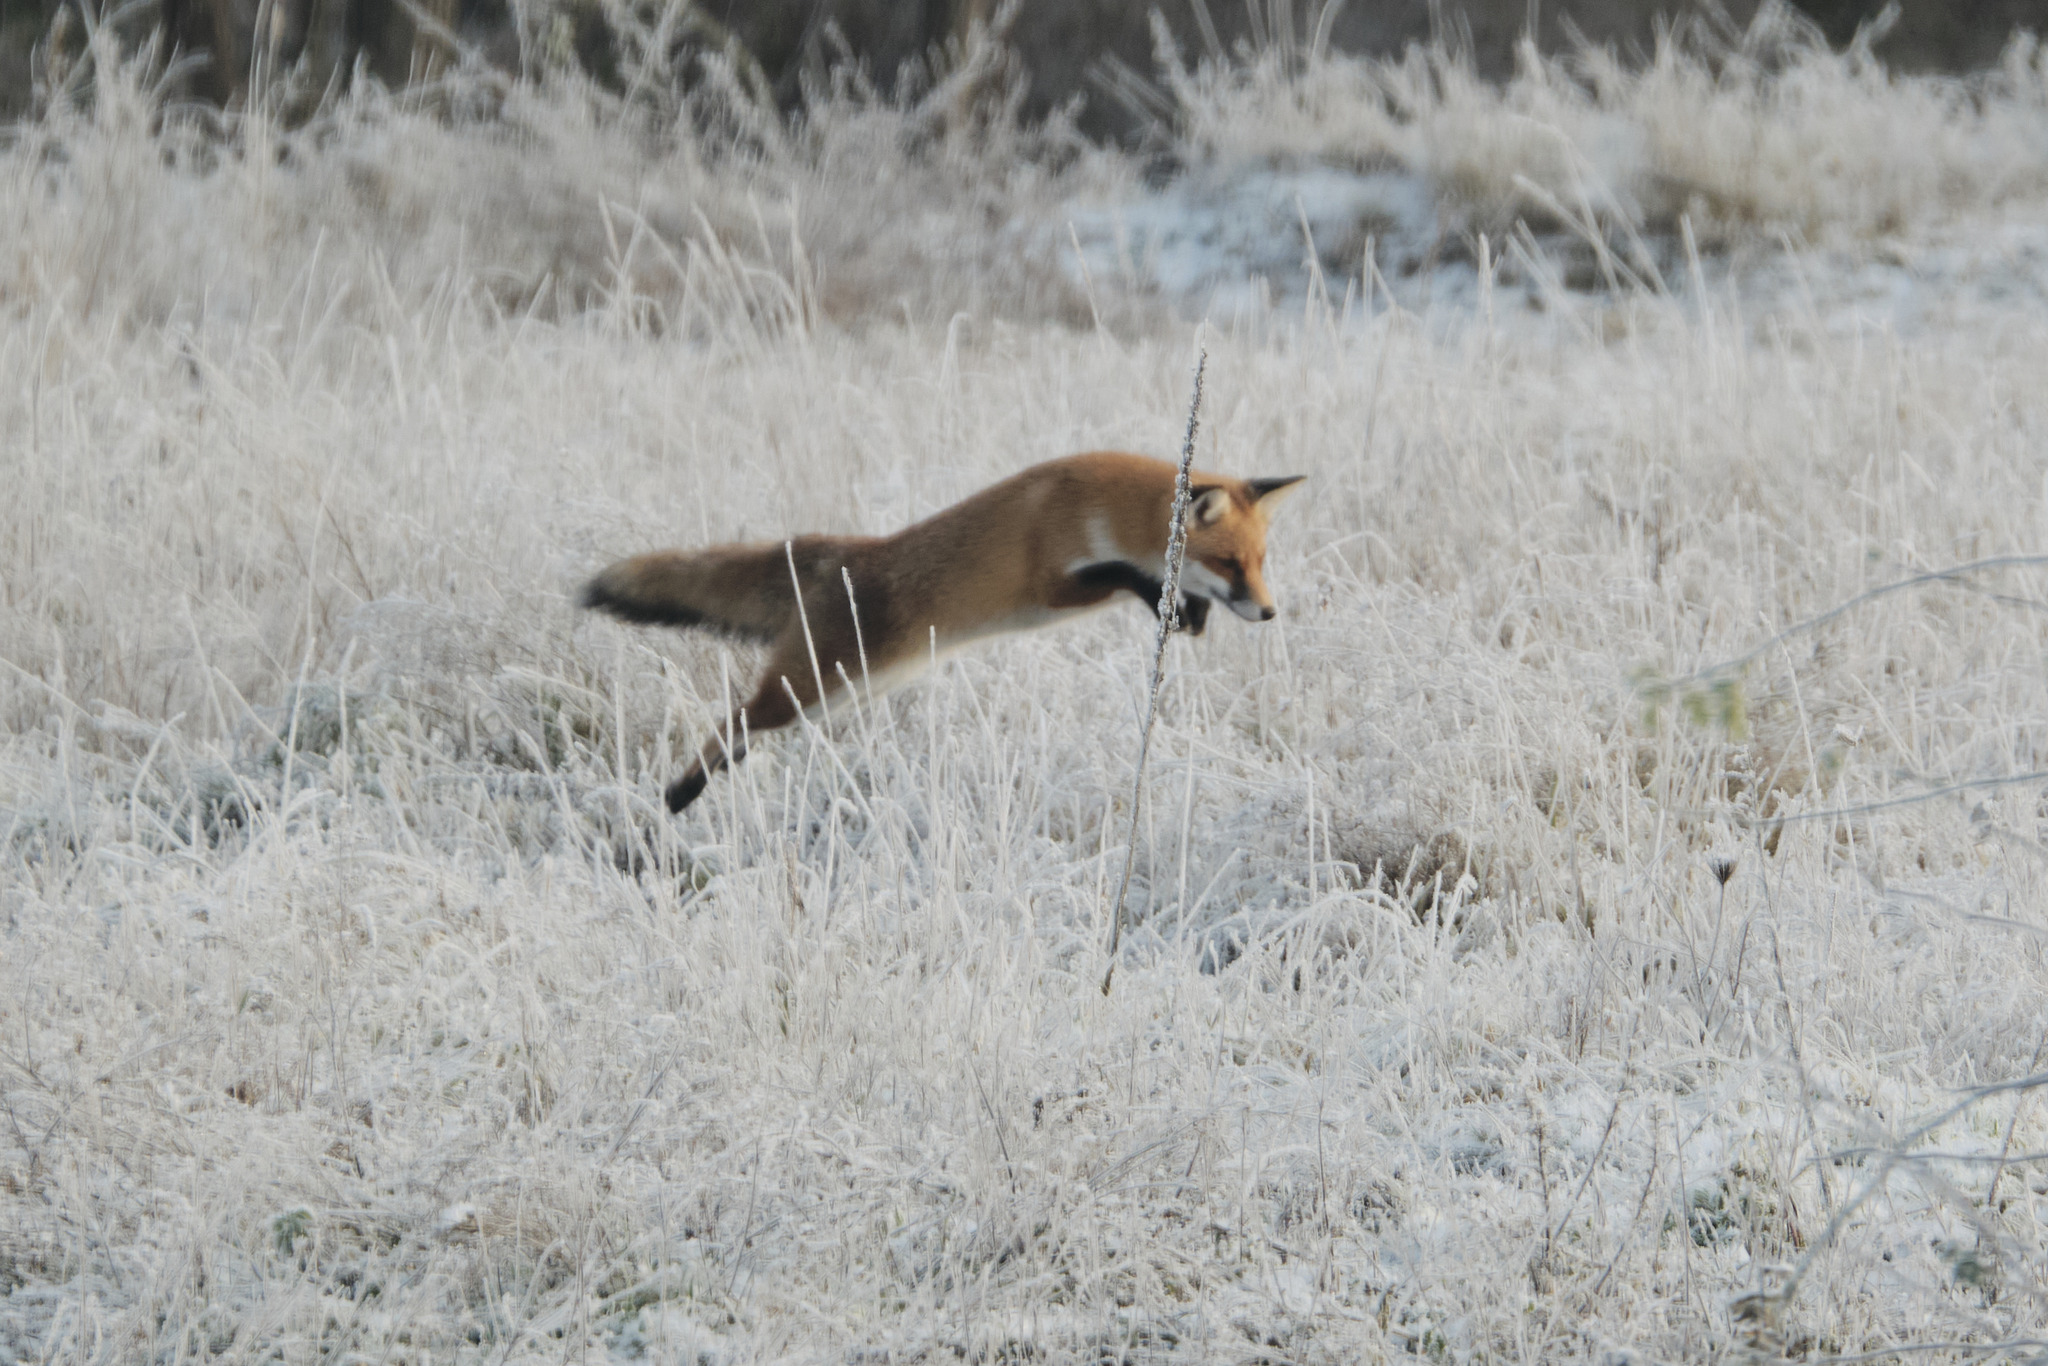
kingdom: Animalia
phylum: Chordata
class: Mammalia
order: Carnivora
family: Canidae
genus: Vulpes
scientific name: Vulpes vulpes
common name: Red fox
